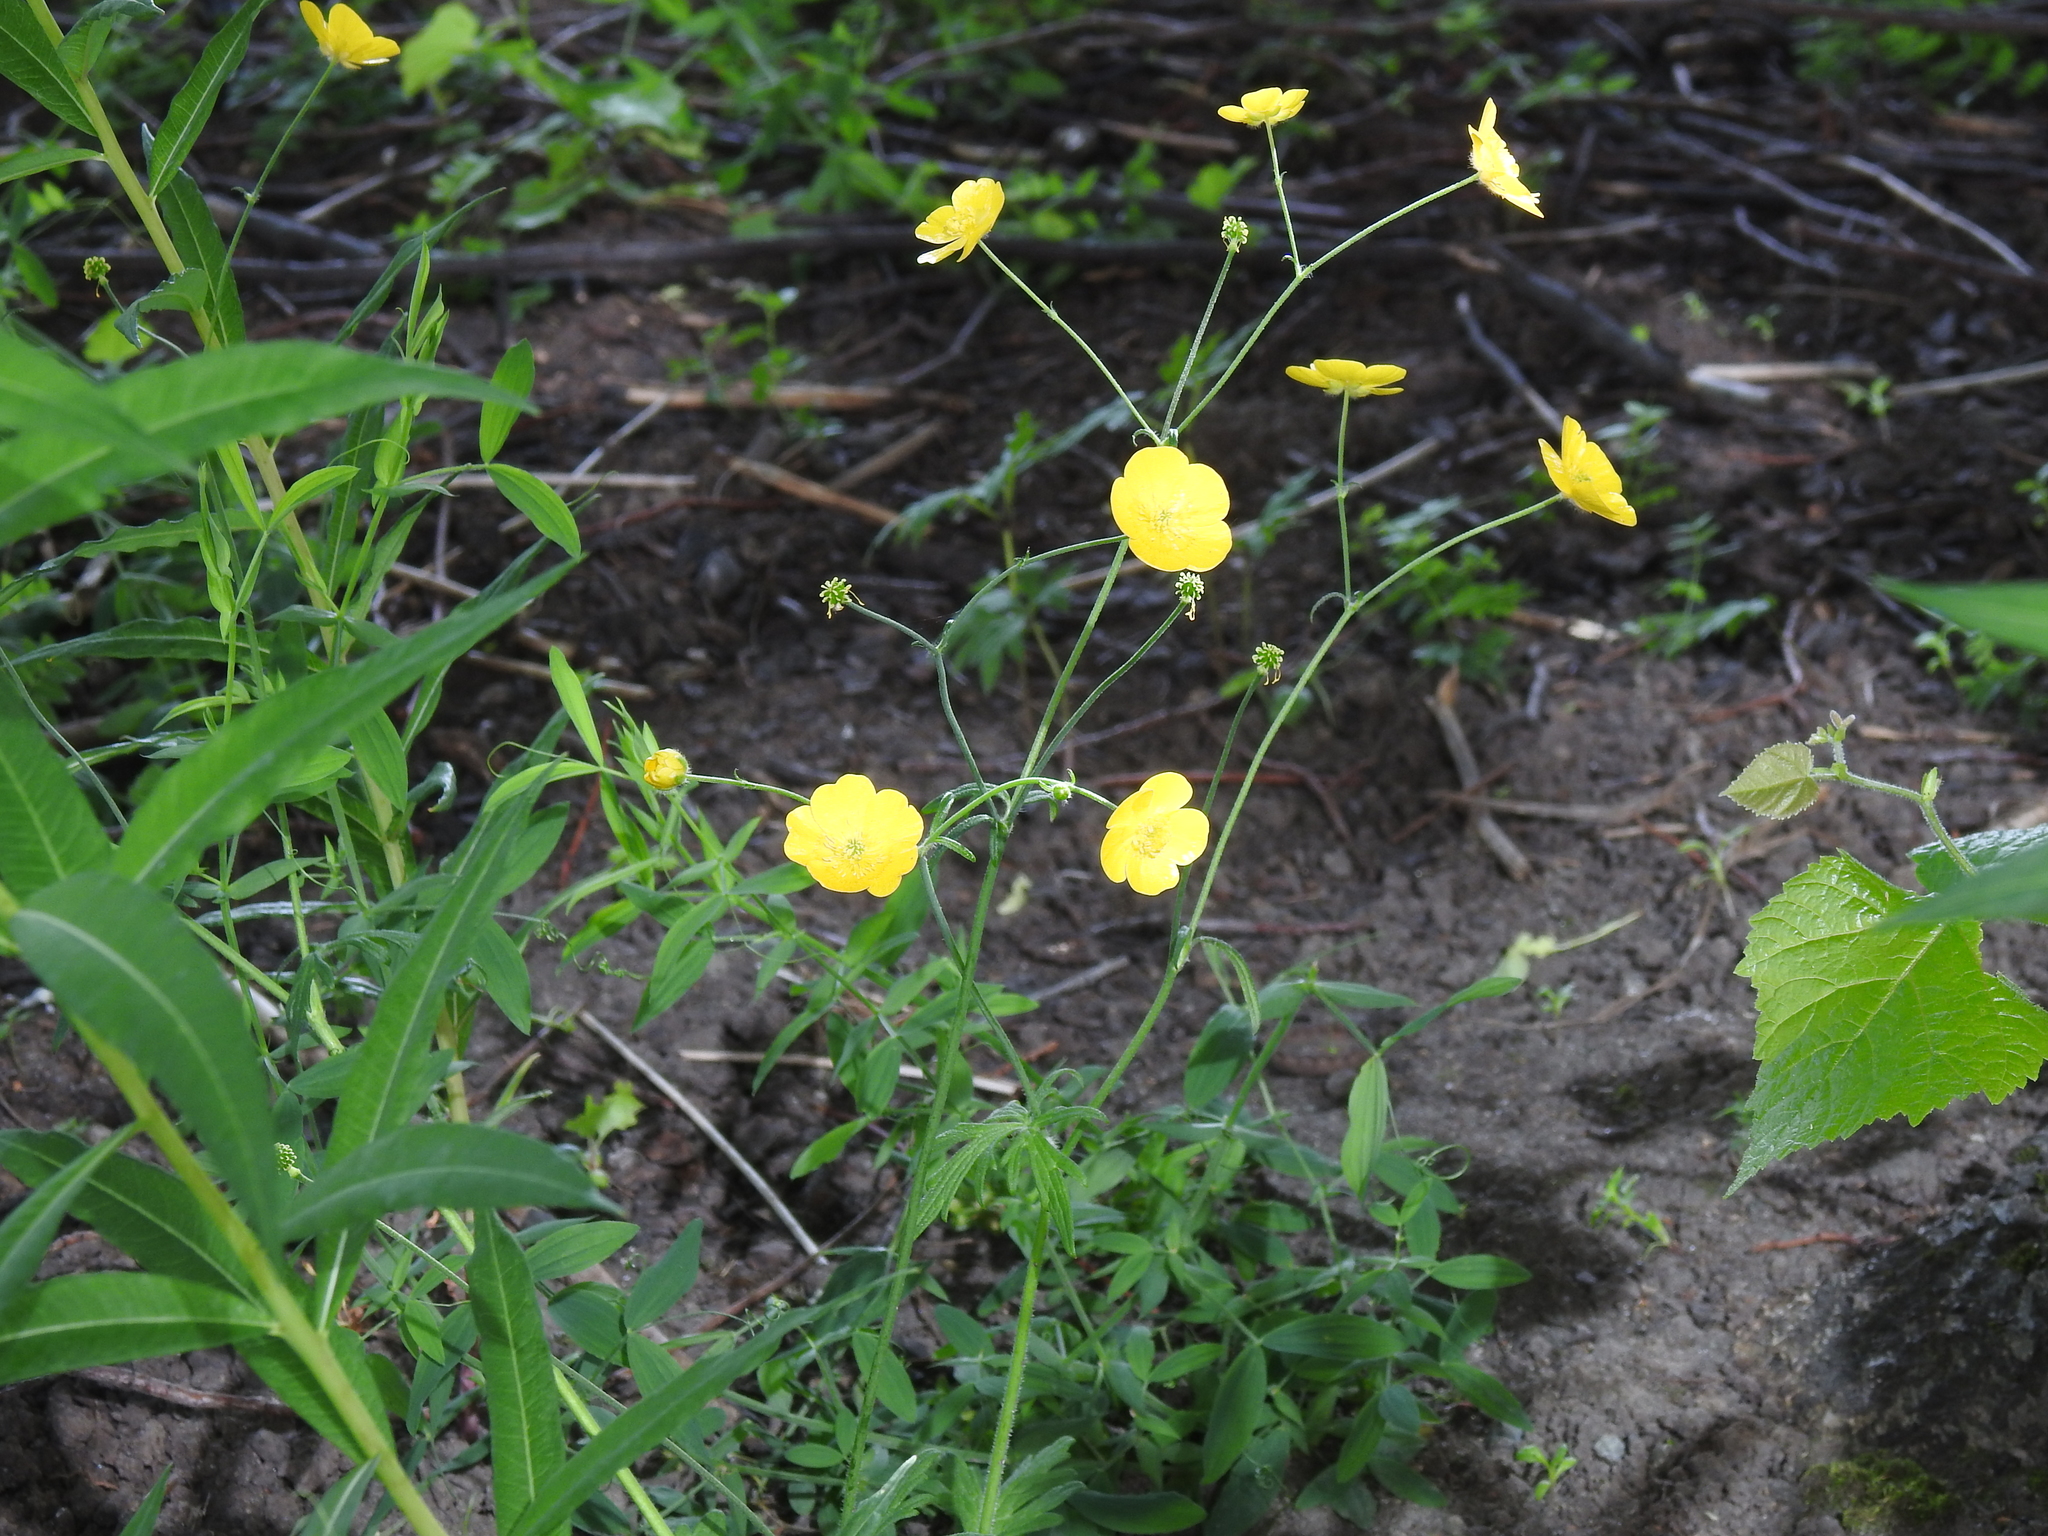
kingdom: Plantae
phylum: Tracheophyta
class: Magnoliopsida
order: Ranunculales
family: Ranunculaceae
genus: Ranunculus
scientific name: Ranunculus acris
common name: Meadow buttercup
